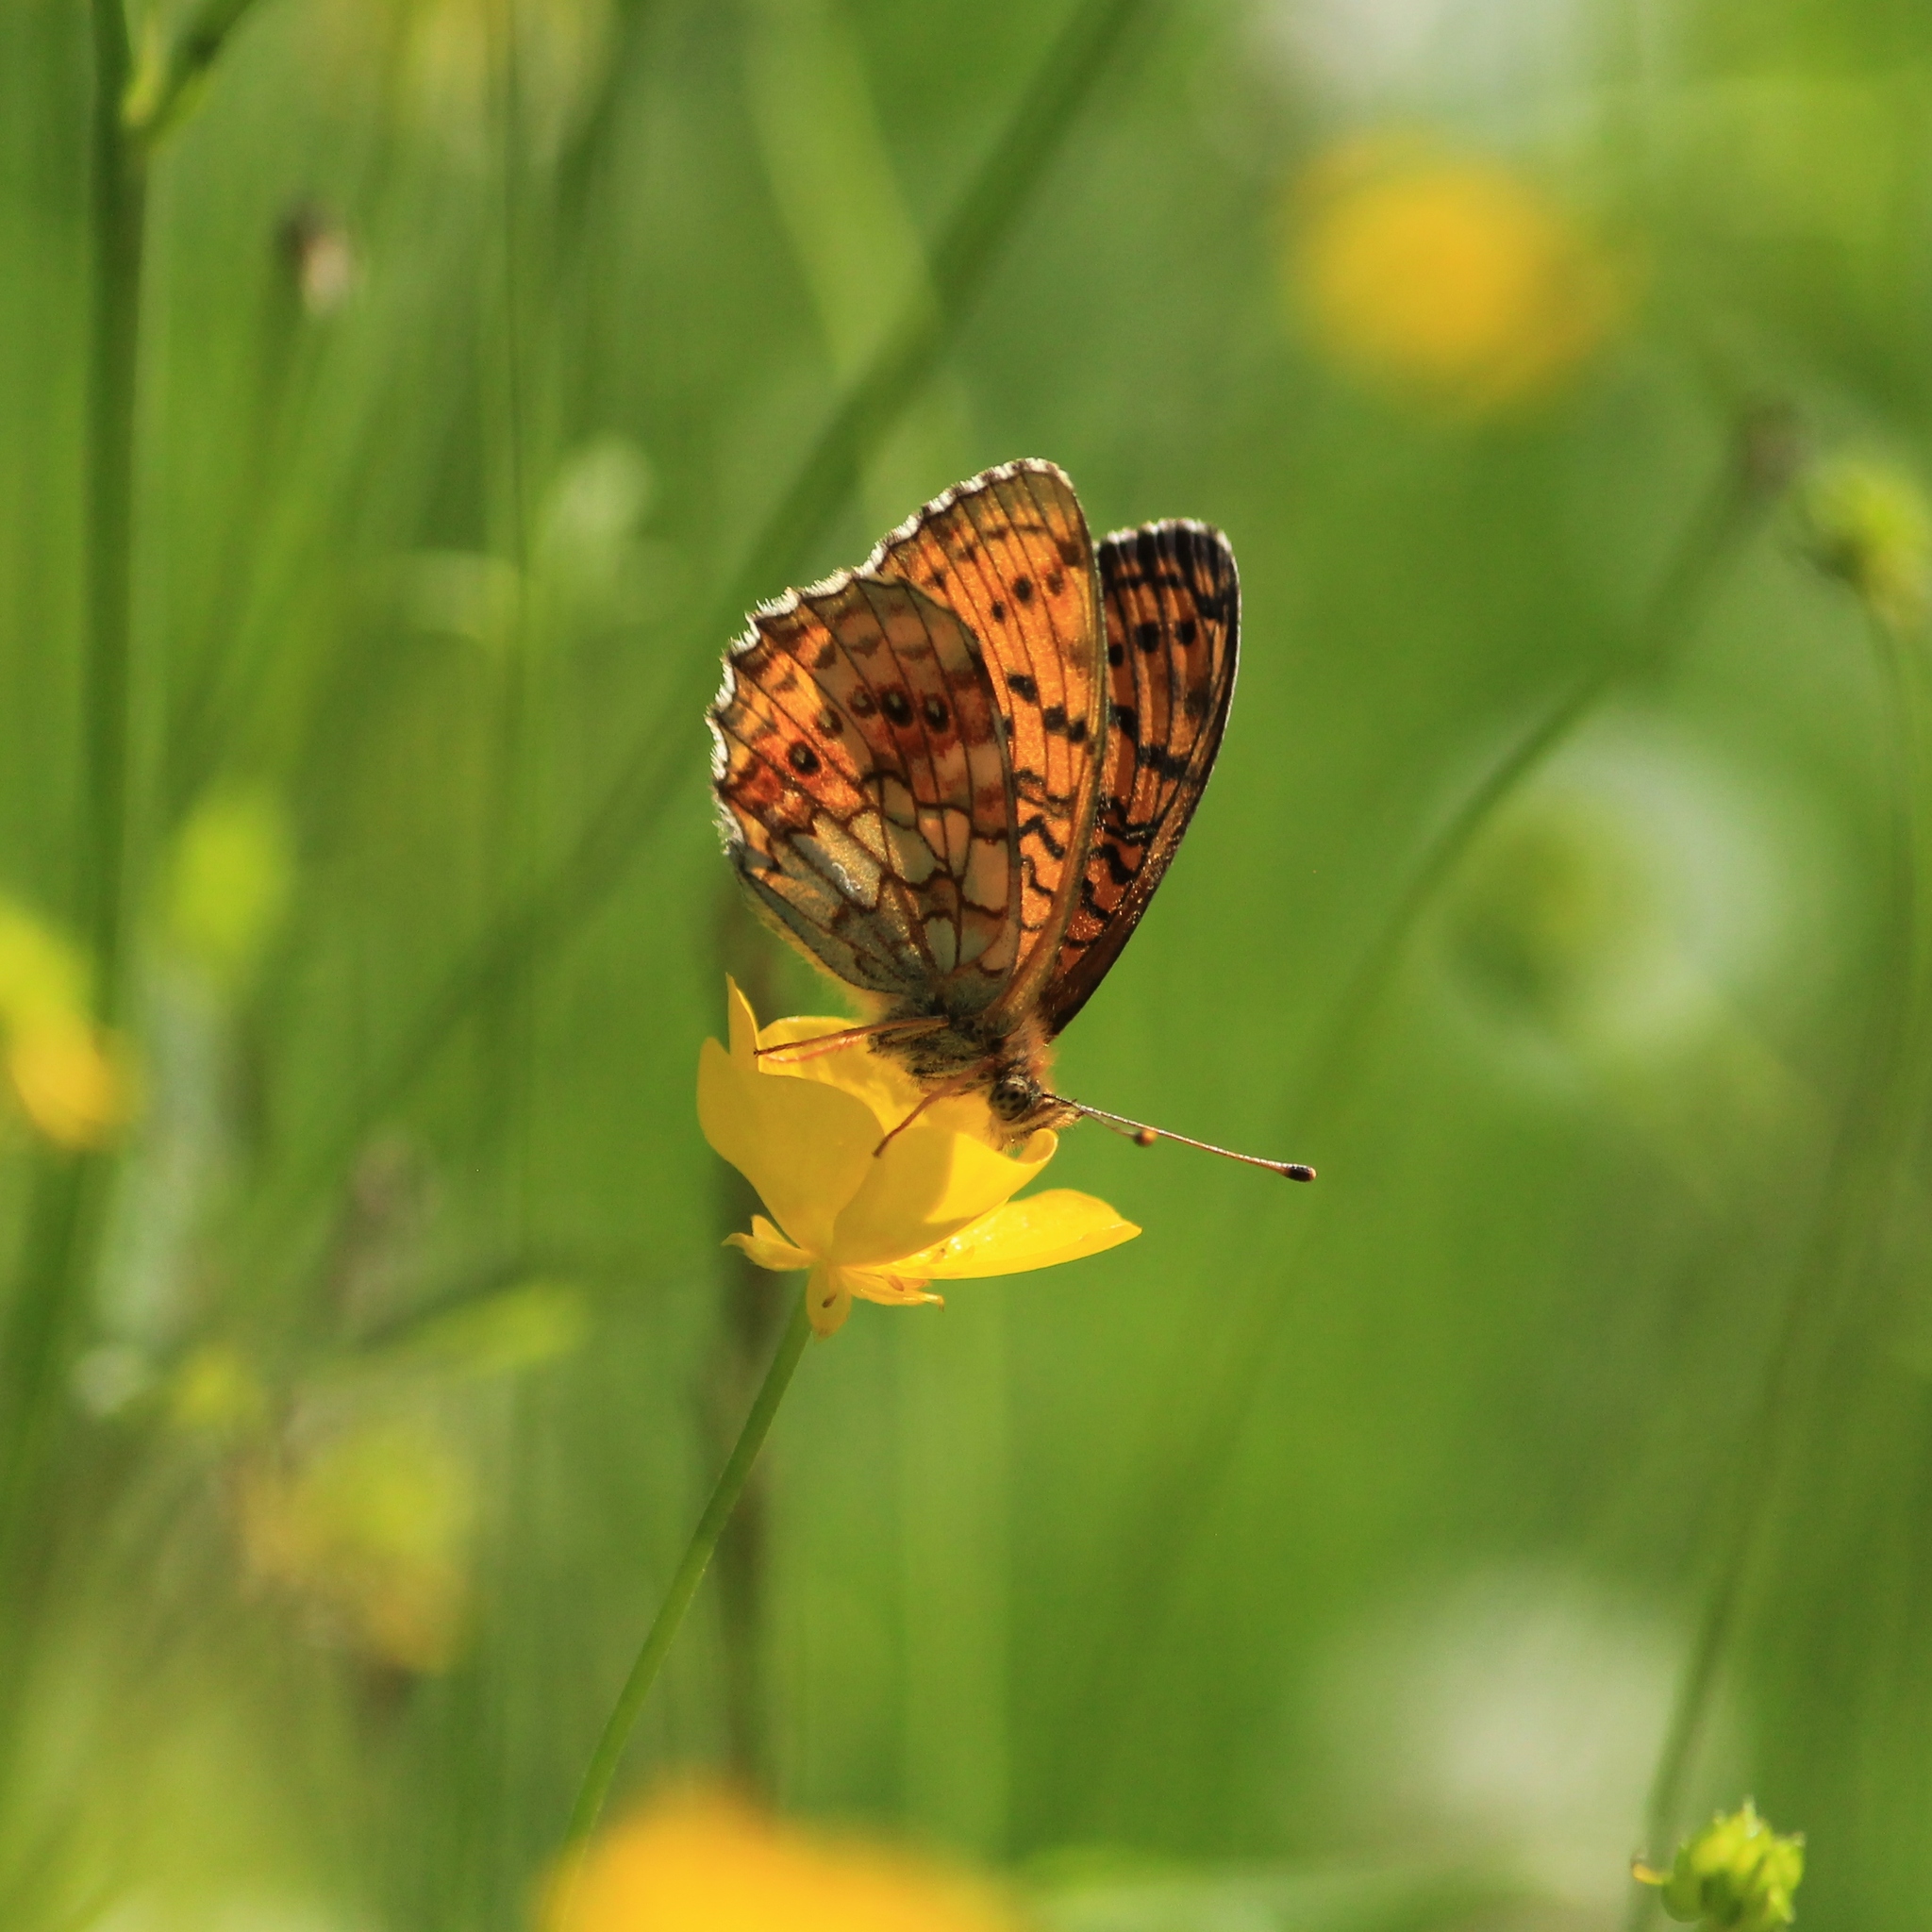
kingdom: Animalia
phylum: Arthropoda
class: Insecta
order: Lepidoptera
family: Nymphalidae
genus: Brenthis
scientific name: Brenthis ino
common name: Lesser marbled fritillary
